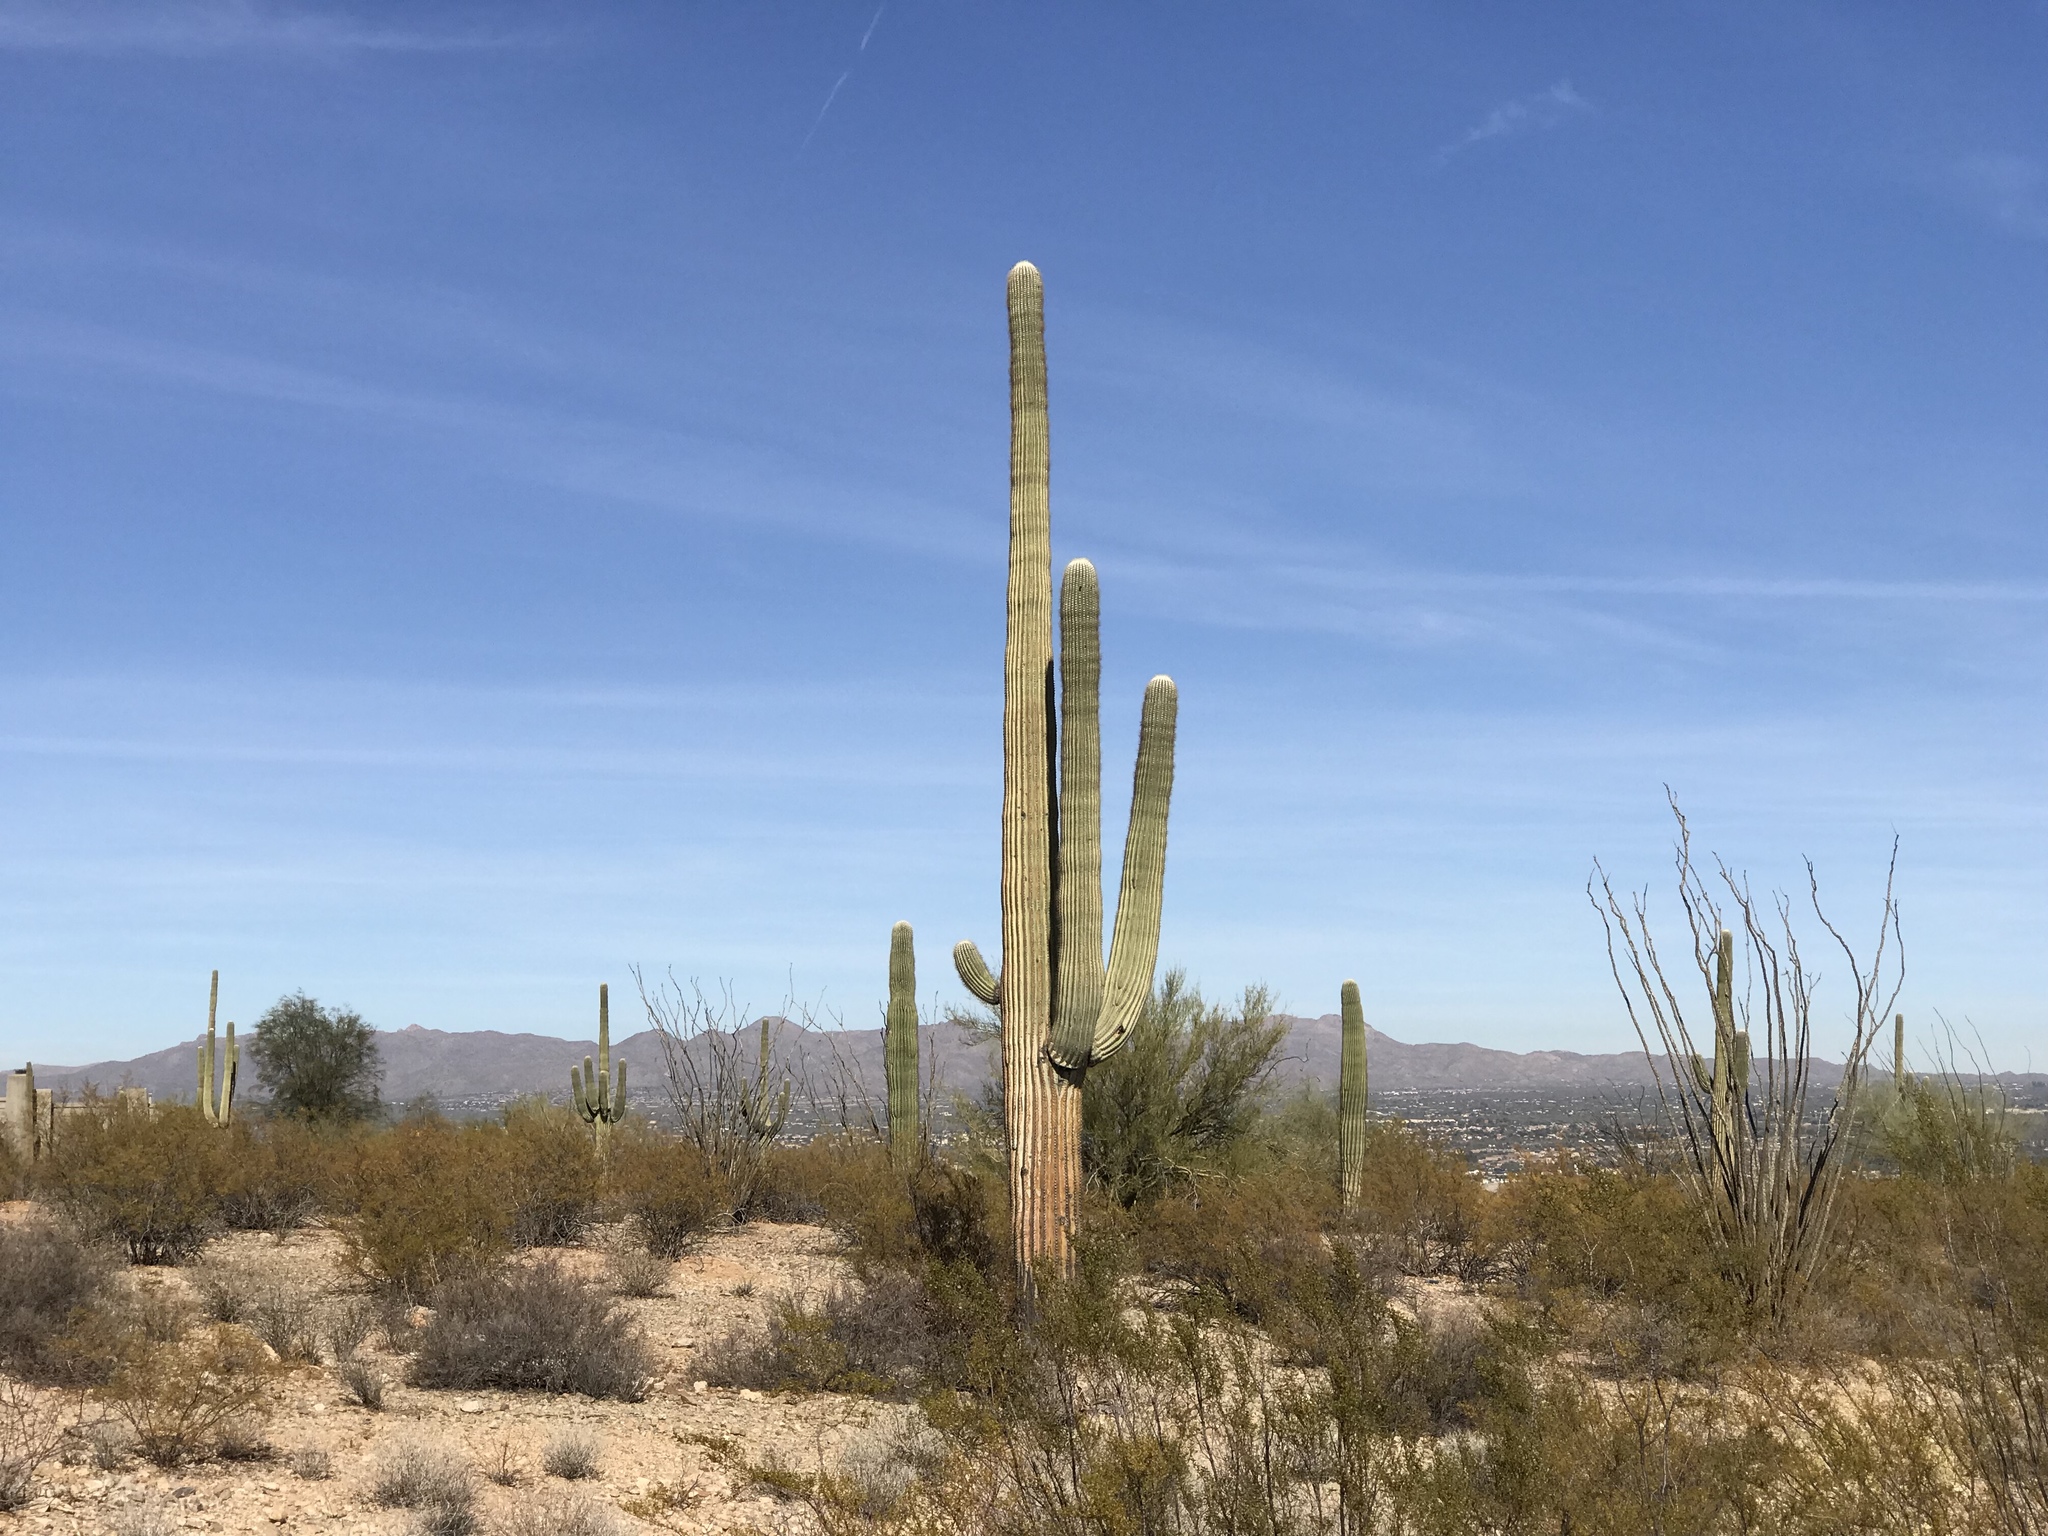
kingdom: Plantae
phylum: Tracheophyta
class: Magnoliopsida
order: Caryophyllales
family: Cactaceae
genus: Carnegiea
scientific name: Carnegiea gigantea
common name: Saguaro
